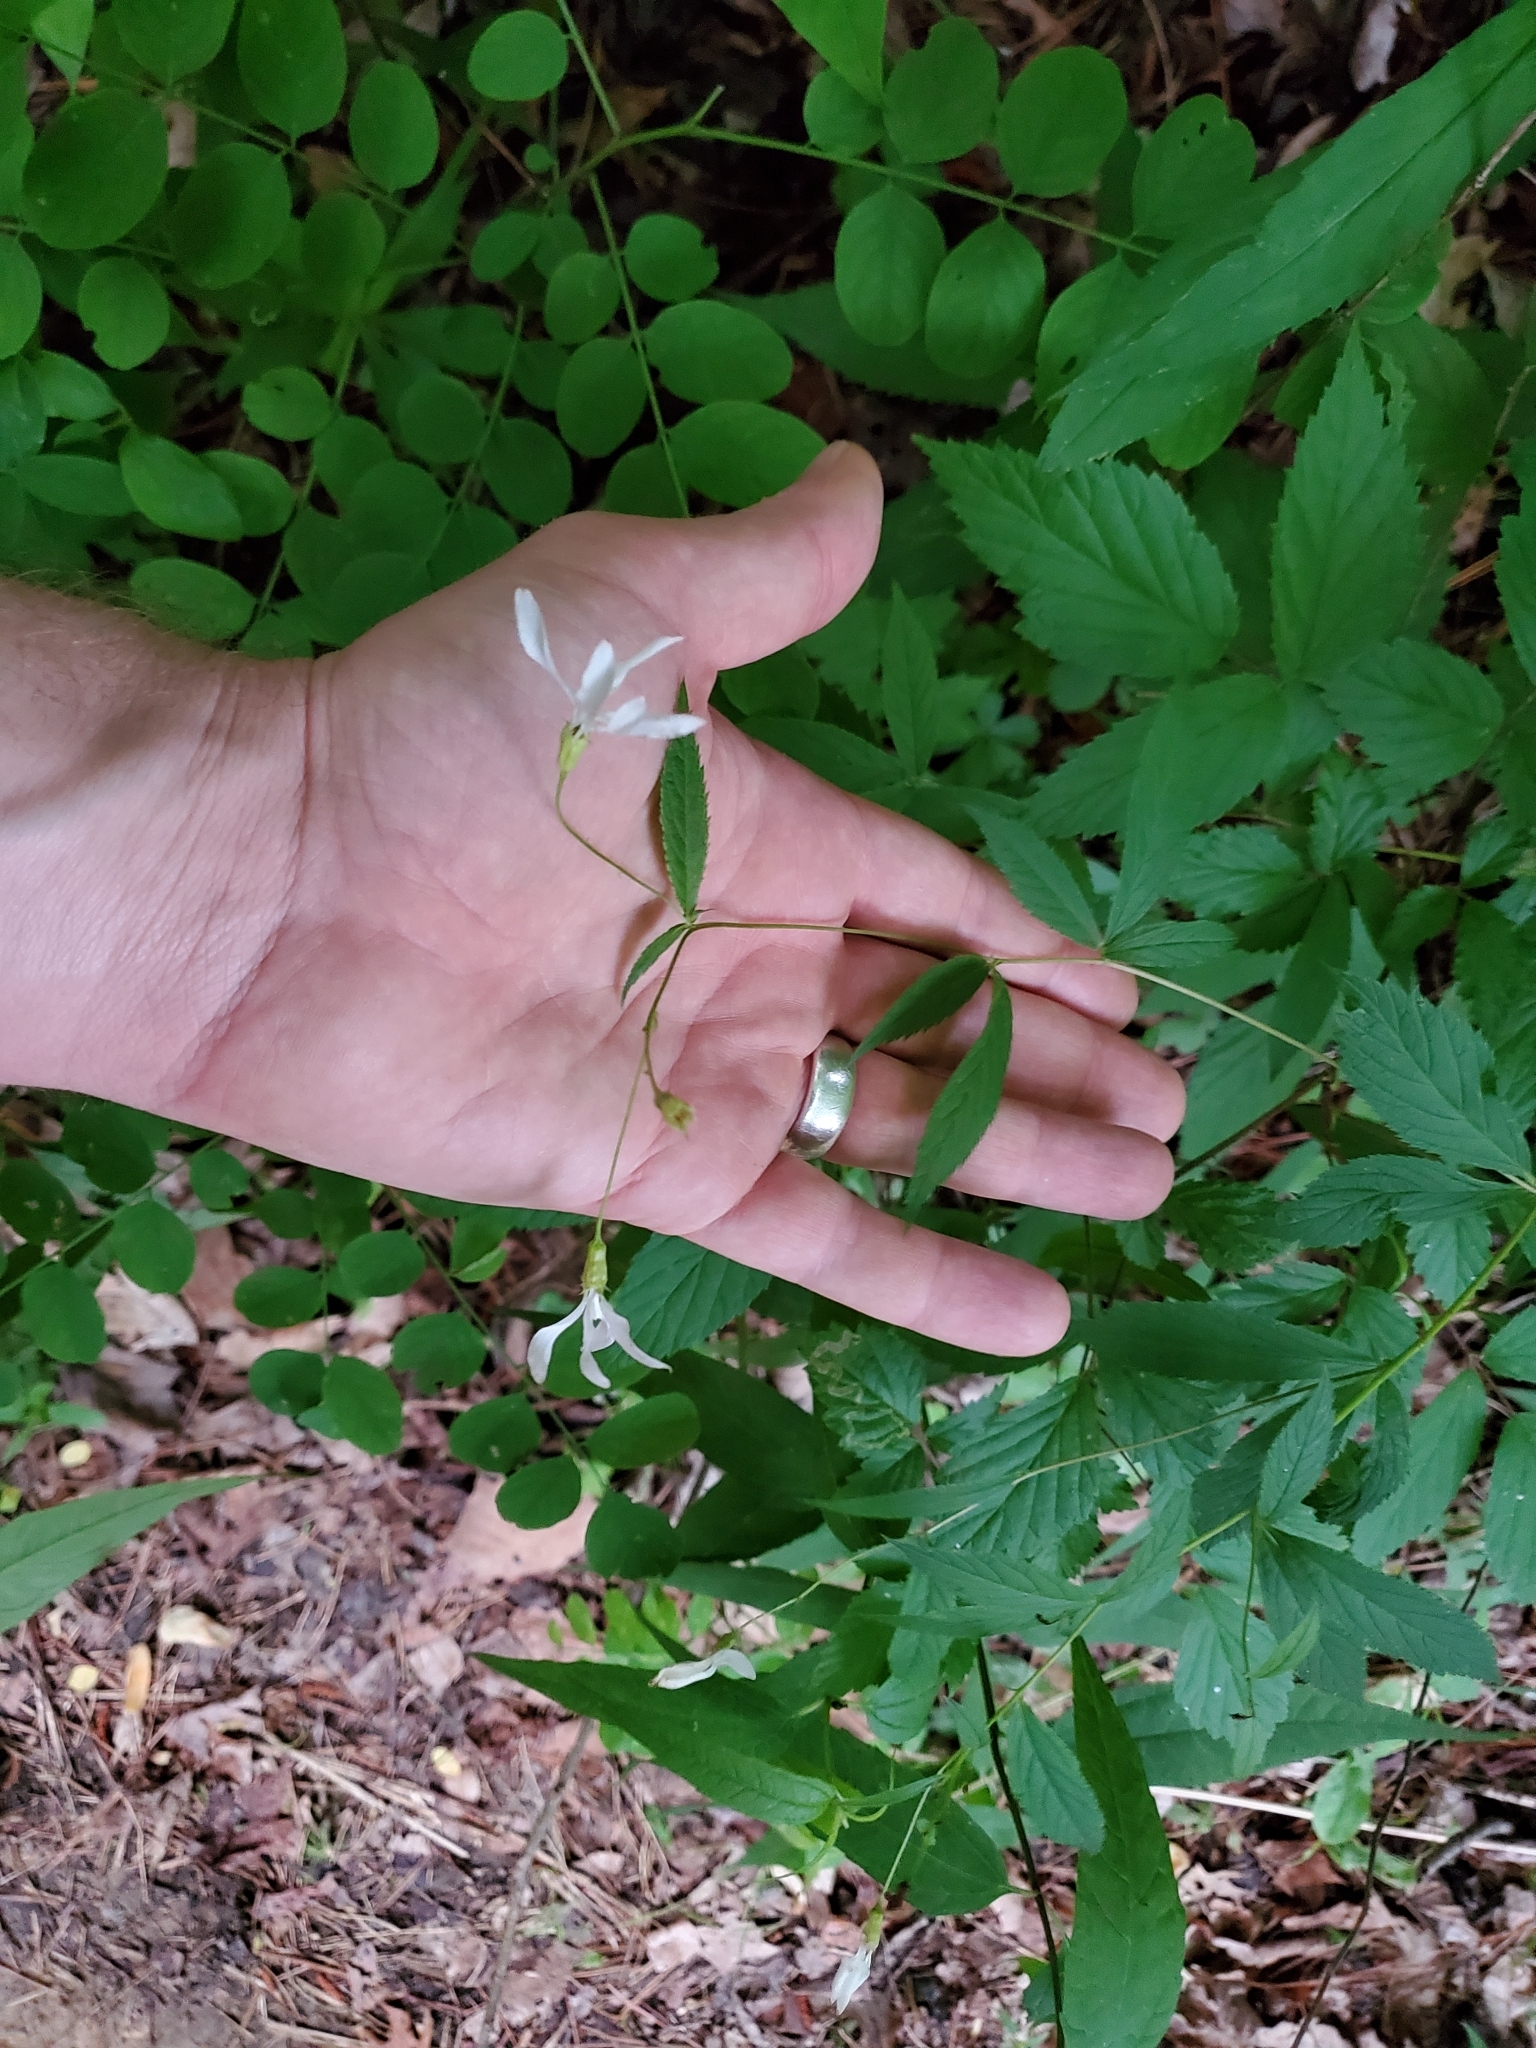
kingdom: Plantae
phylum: Tracheophyta
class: Magnoliopsida
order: Rosales
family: Rosaceae
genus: Gillenia
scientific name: Gillenia trifoliata
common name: Bowman's-root
